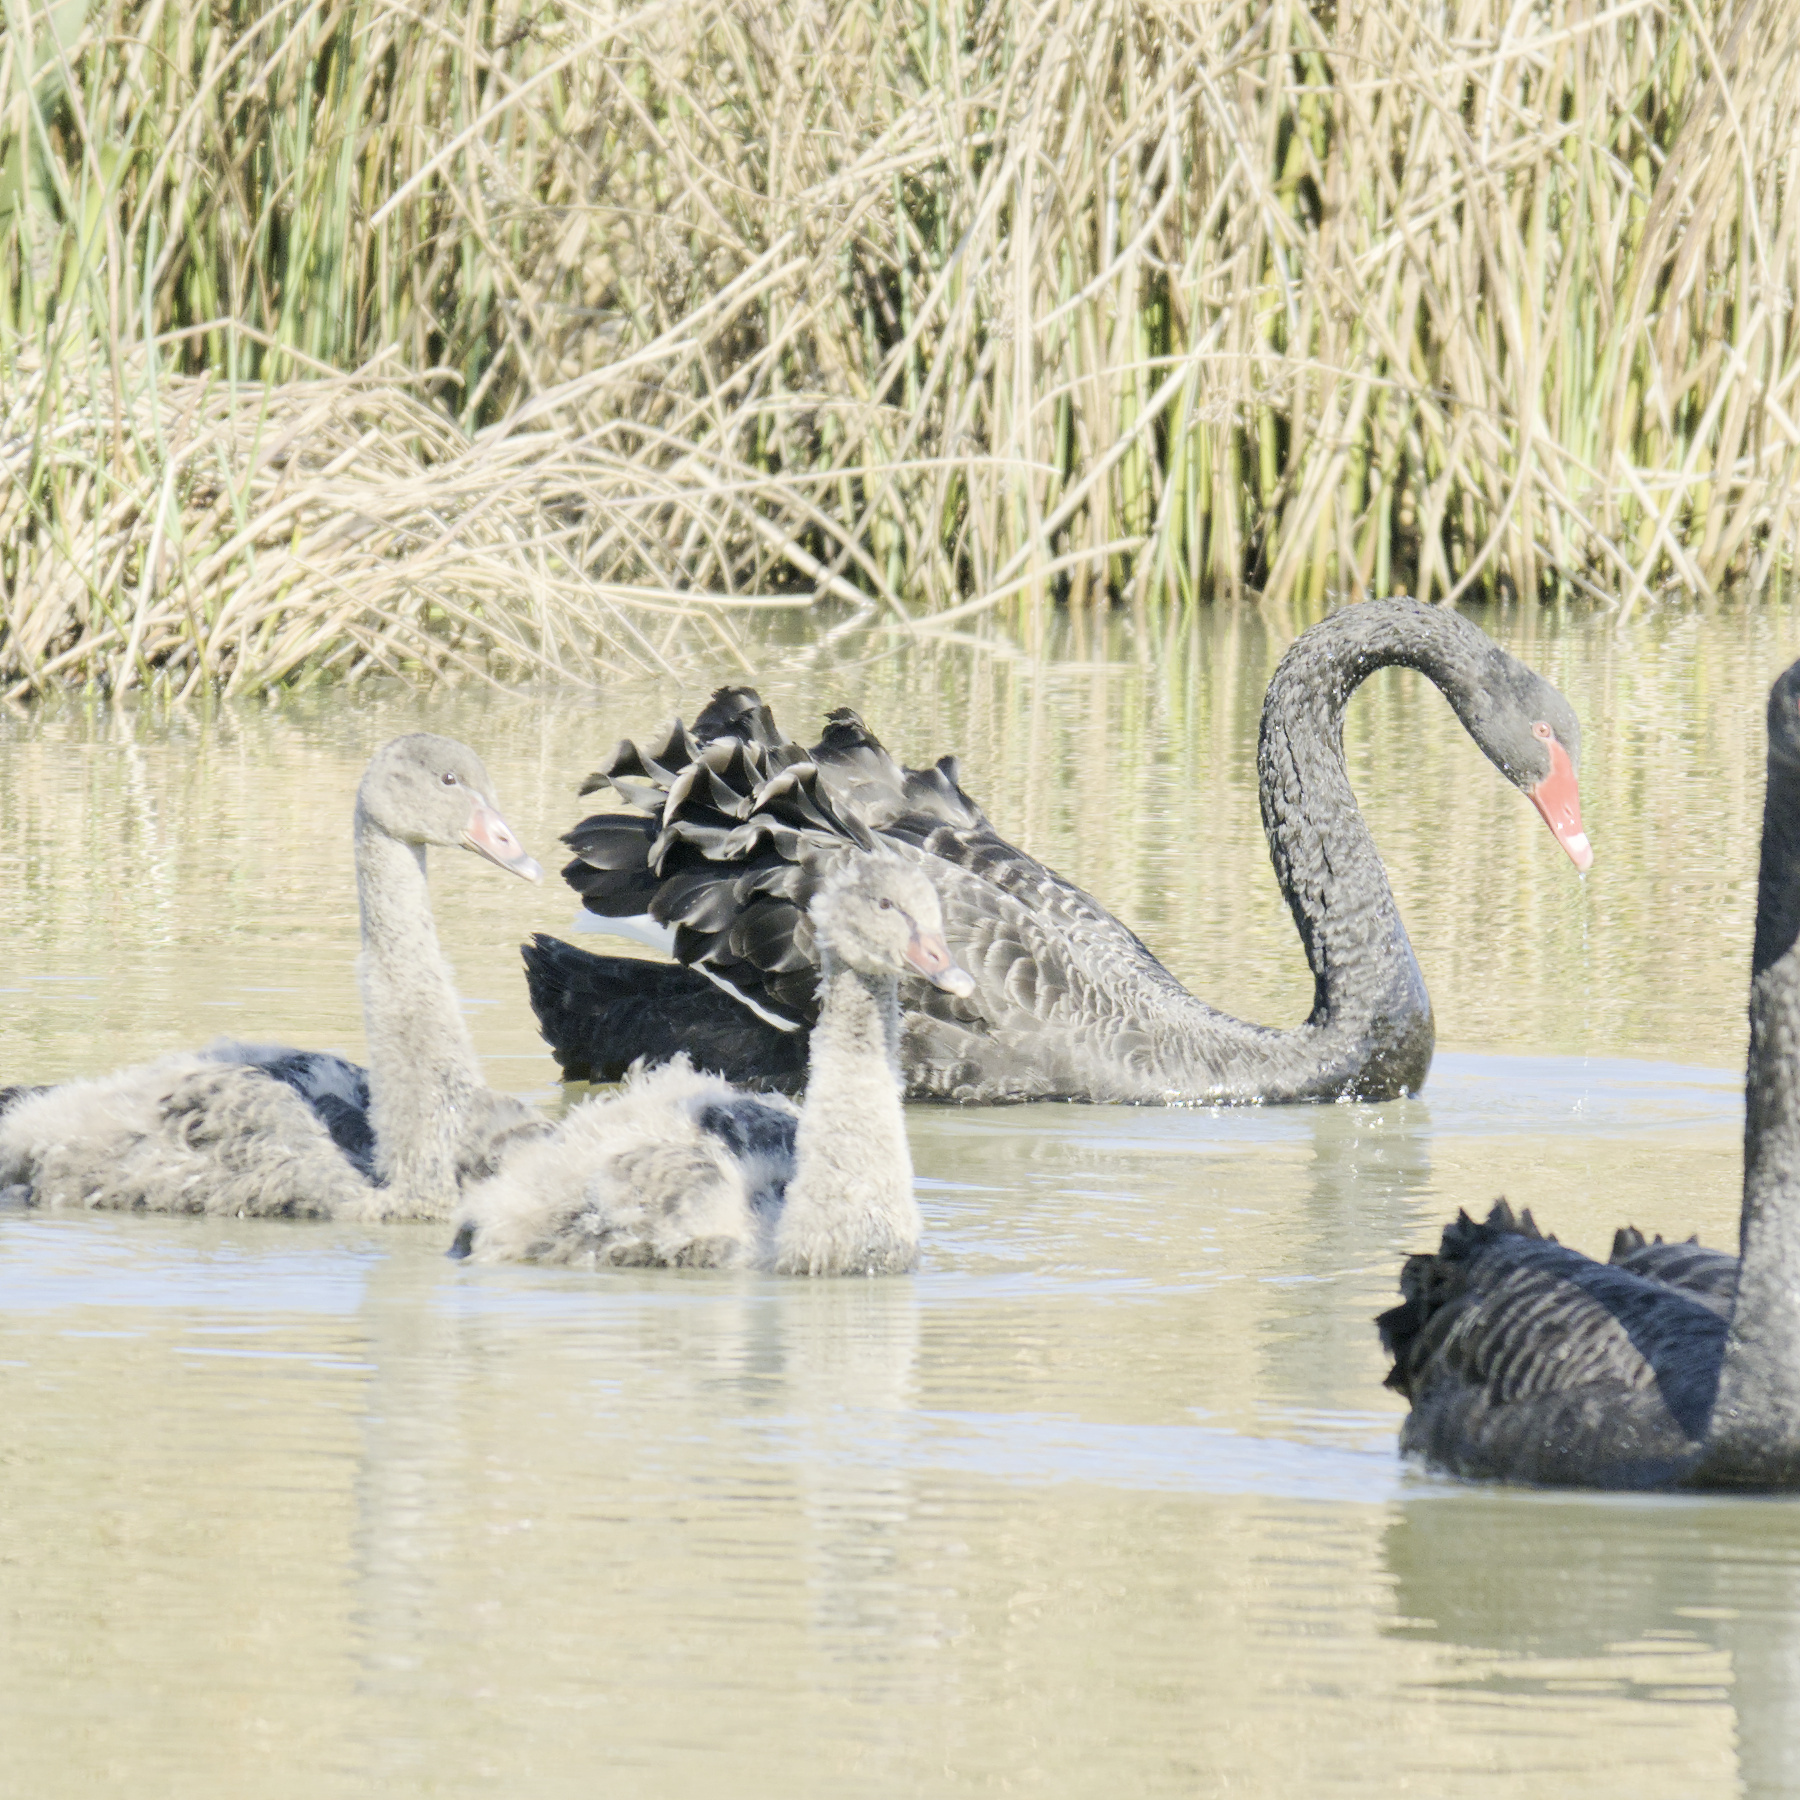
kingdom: Animalia
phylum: Chordata
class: Aves
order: Anseriformes
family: Anatidae
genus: Cygnus
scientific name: Cygnus atratus
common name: Black swan
